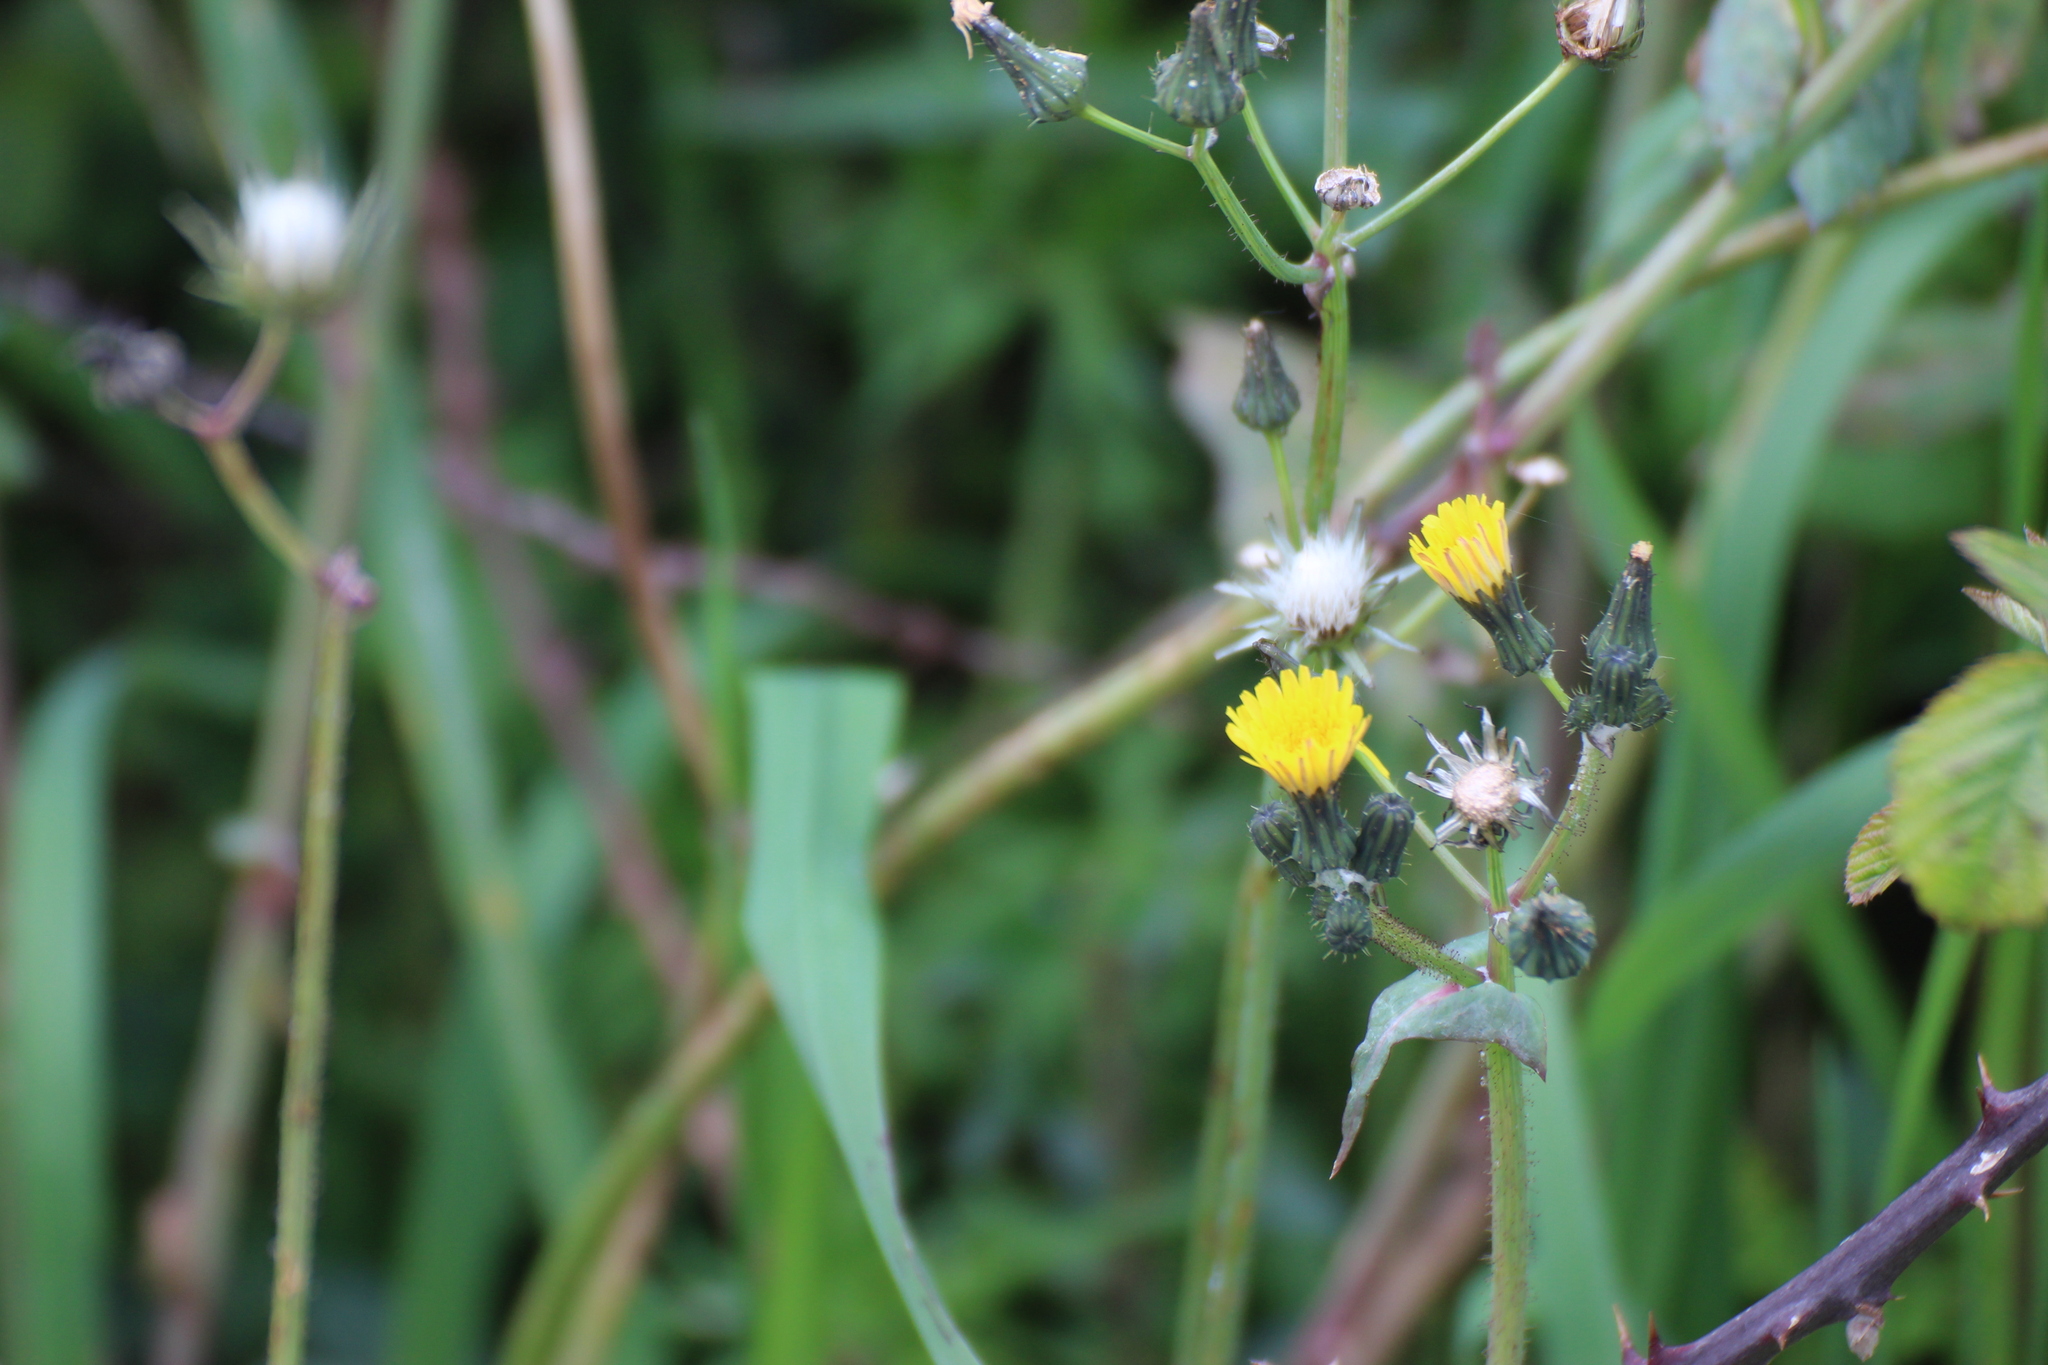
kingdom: Plantae
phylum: Tracheophyta
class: Magnoliopsida
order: Asterales
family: Asteraceae
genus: Sonchus
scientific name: Sonchus oleraceus
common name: Common sowthistle
